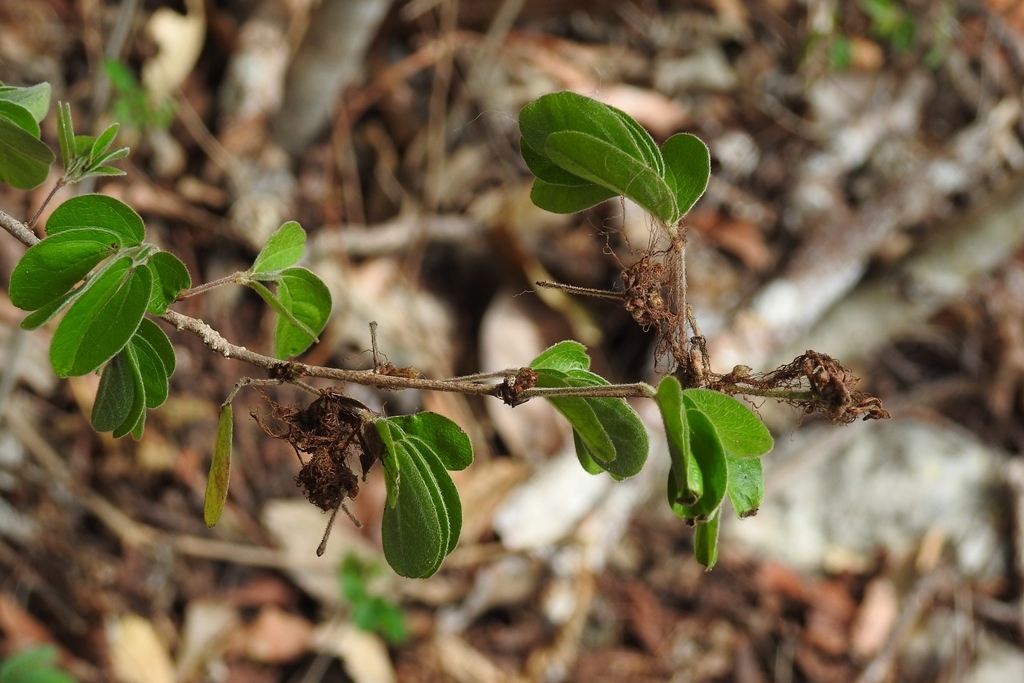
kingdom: Plantae
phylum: Tracheophyta
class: Magnoliopsida
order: Fabales
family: Fabaceae
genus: Mimosa
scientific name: Mimosa velloziana
